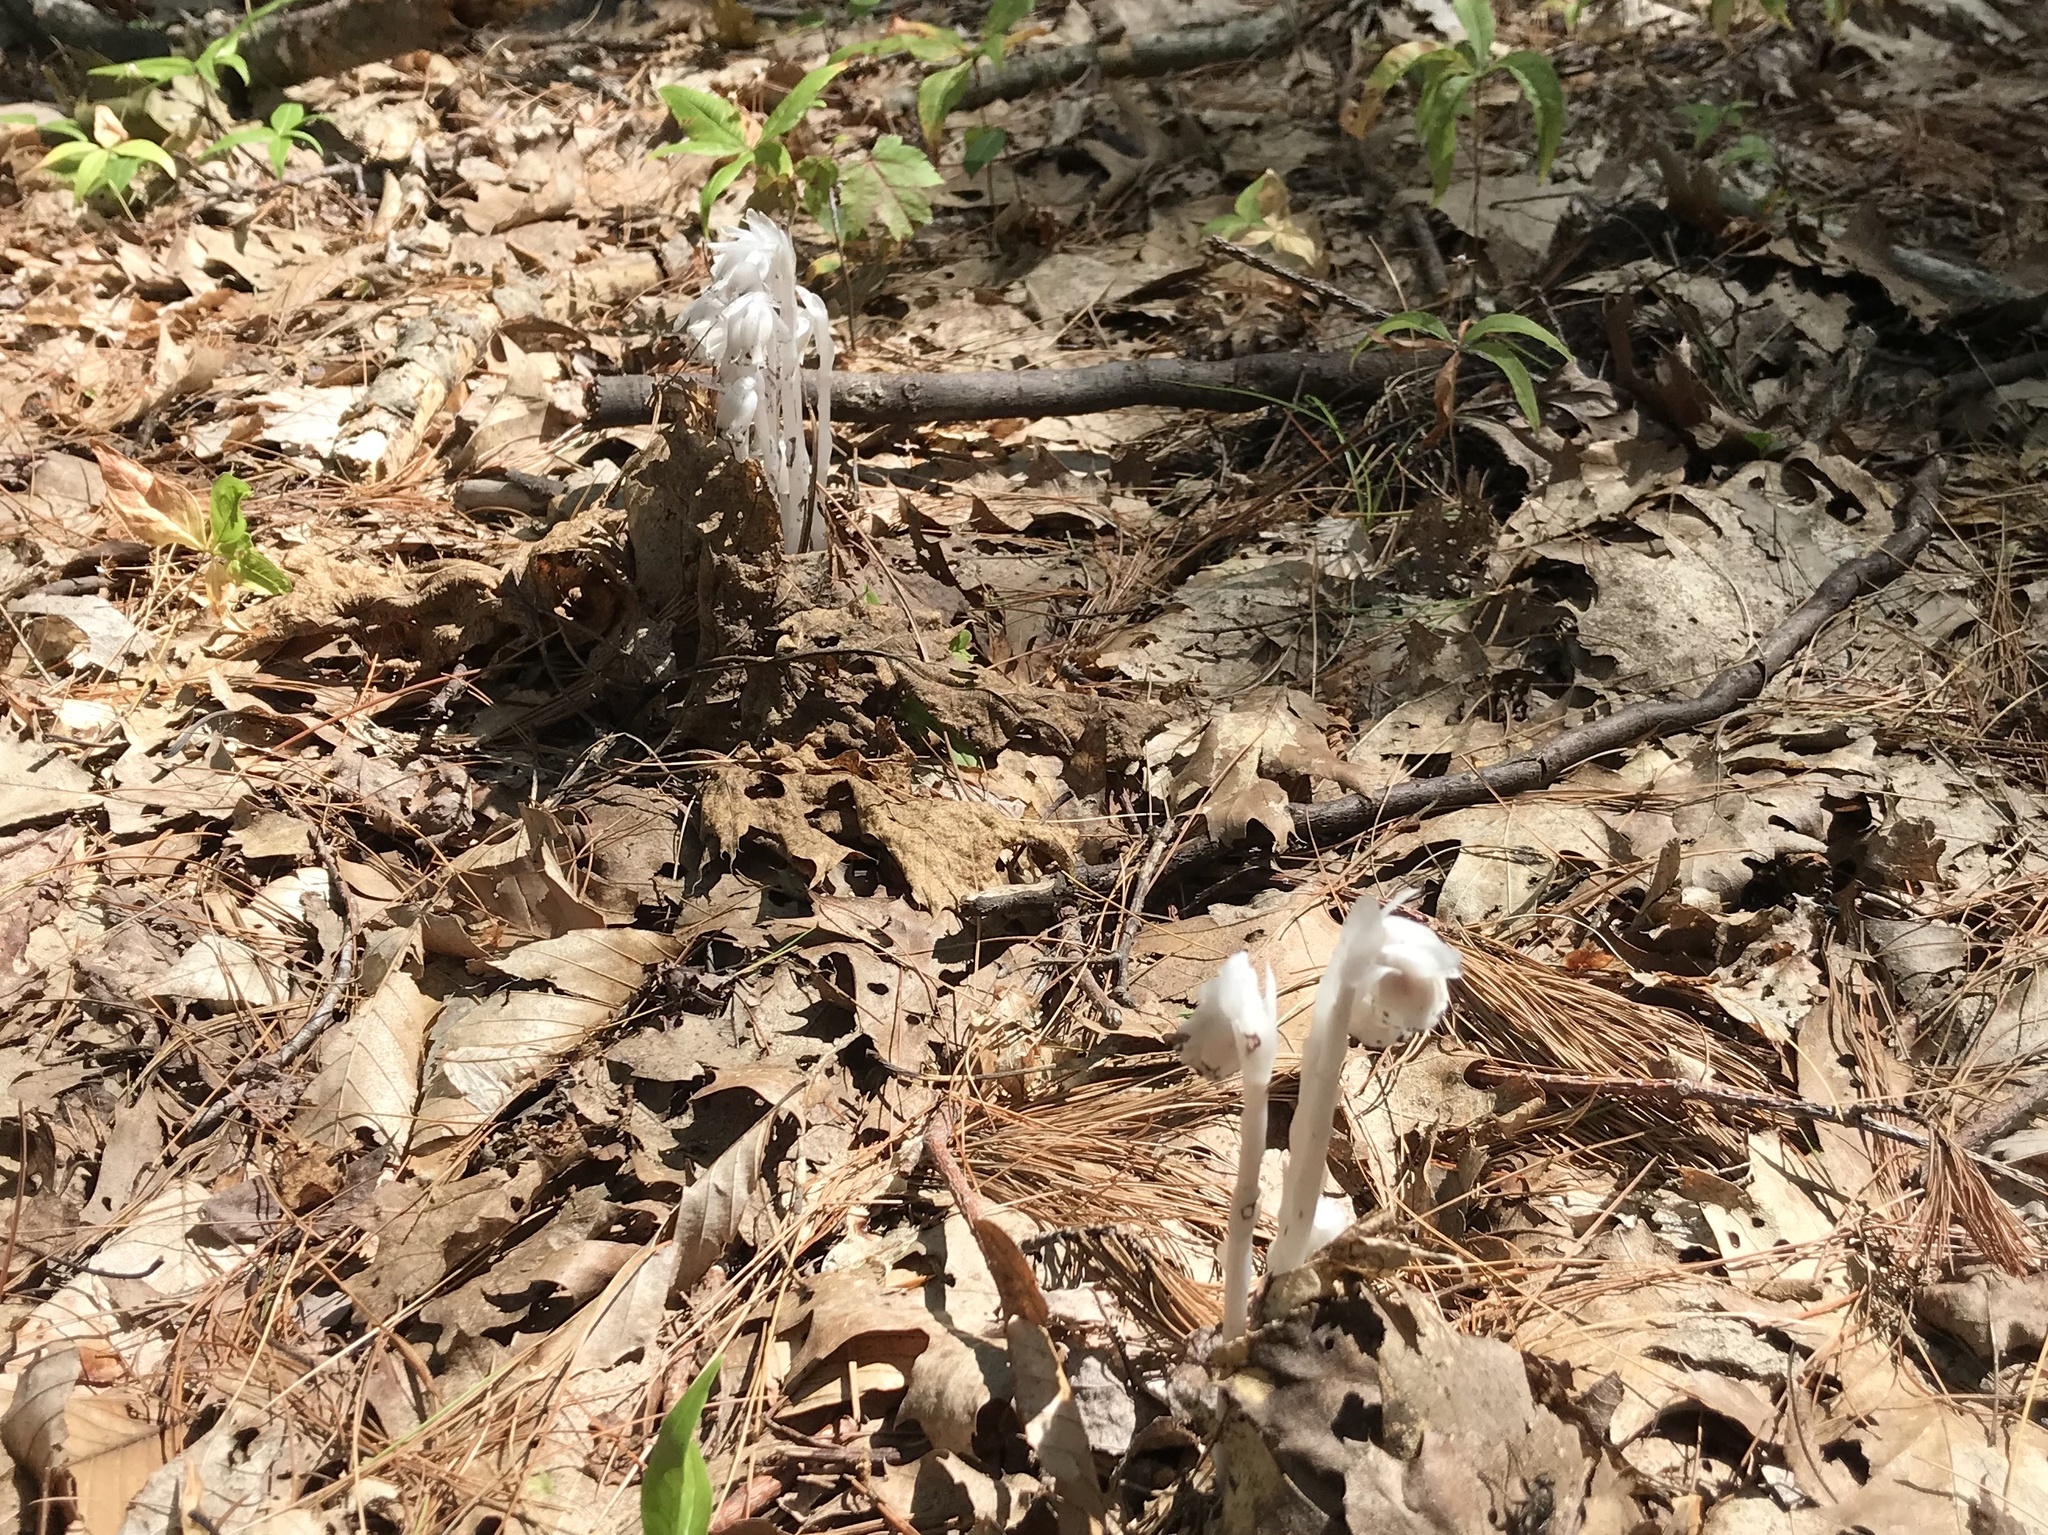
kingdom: Plantae
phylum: Tracheophyta
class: Magnoliopsida
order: Ericales
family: Ericaceae
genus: Monotropa
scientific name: Monotropa uniflora
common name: Convulsion root
